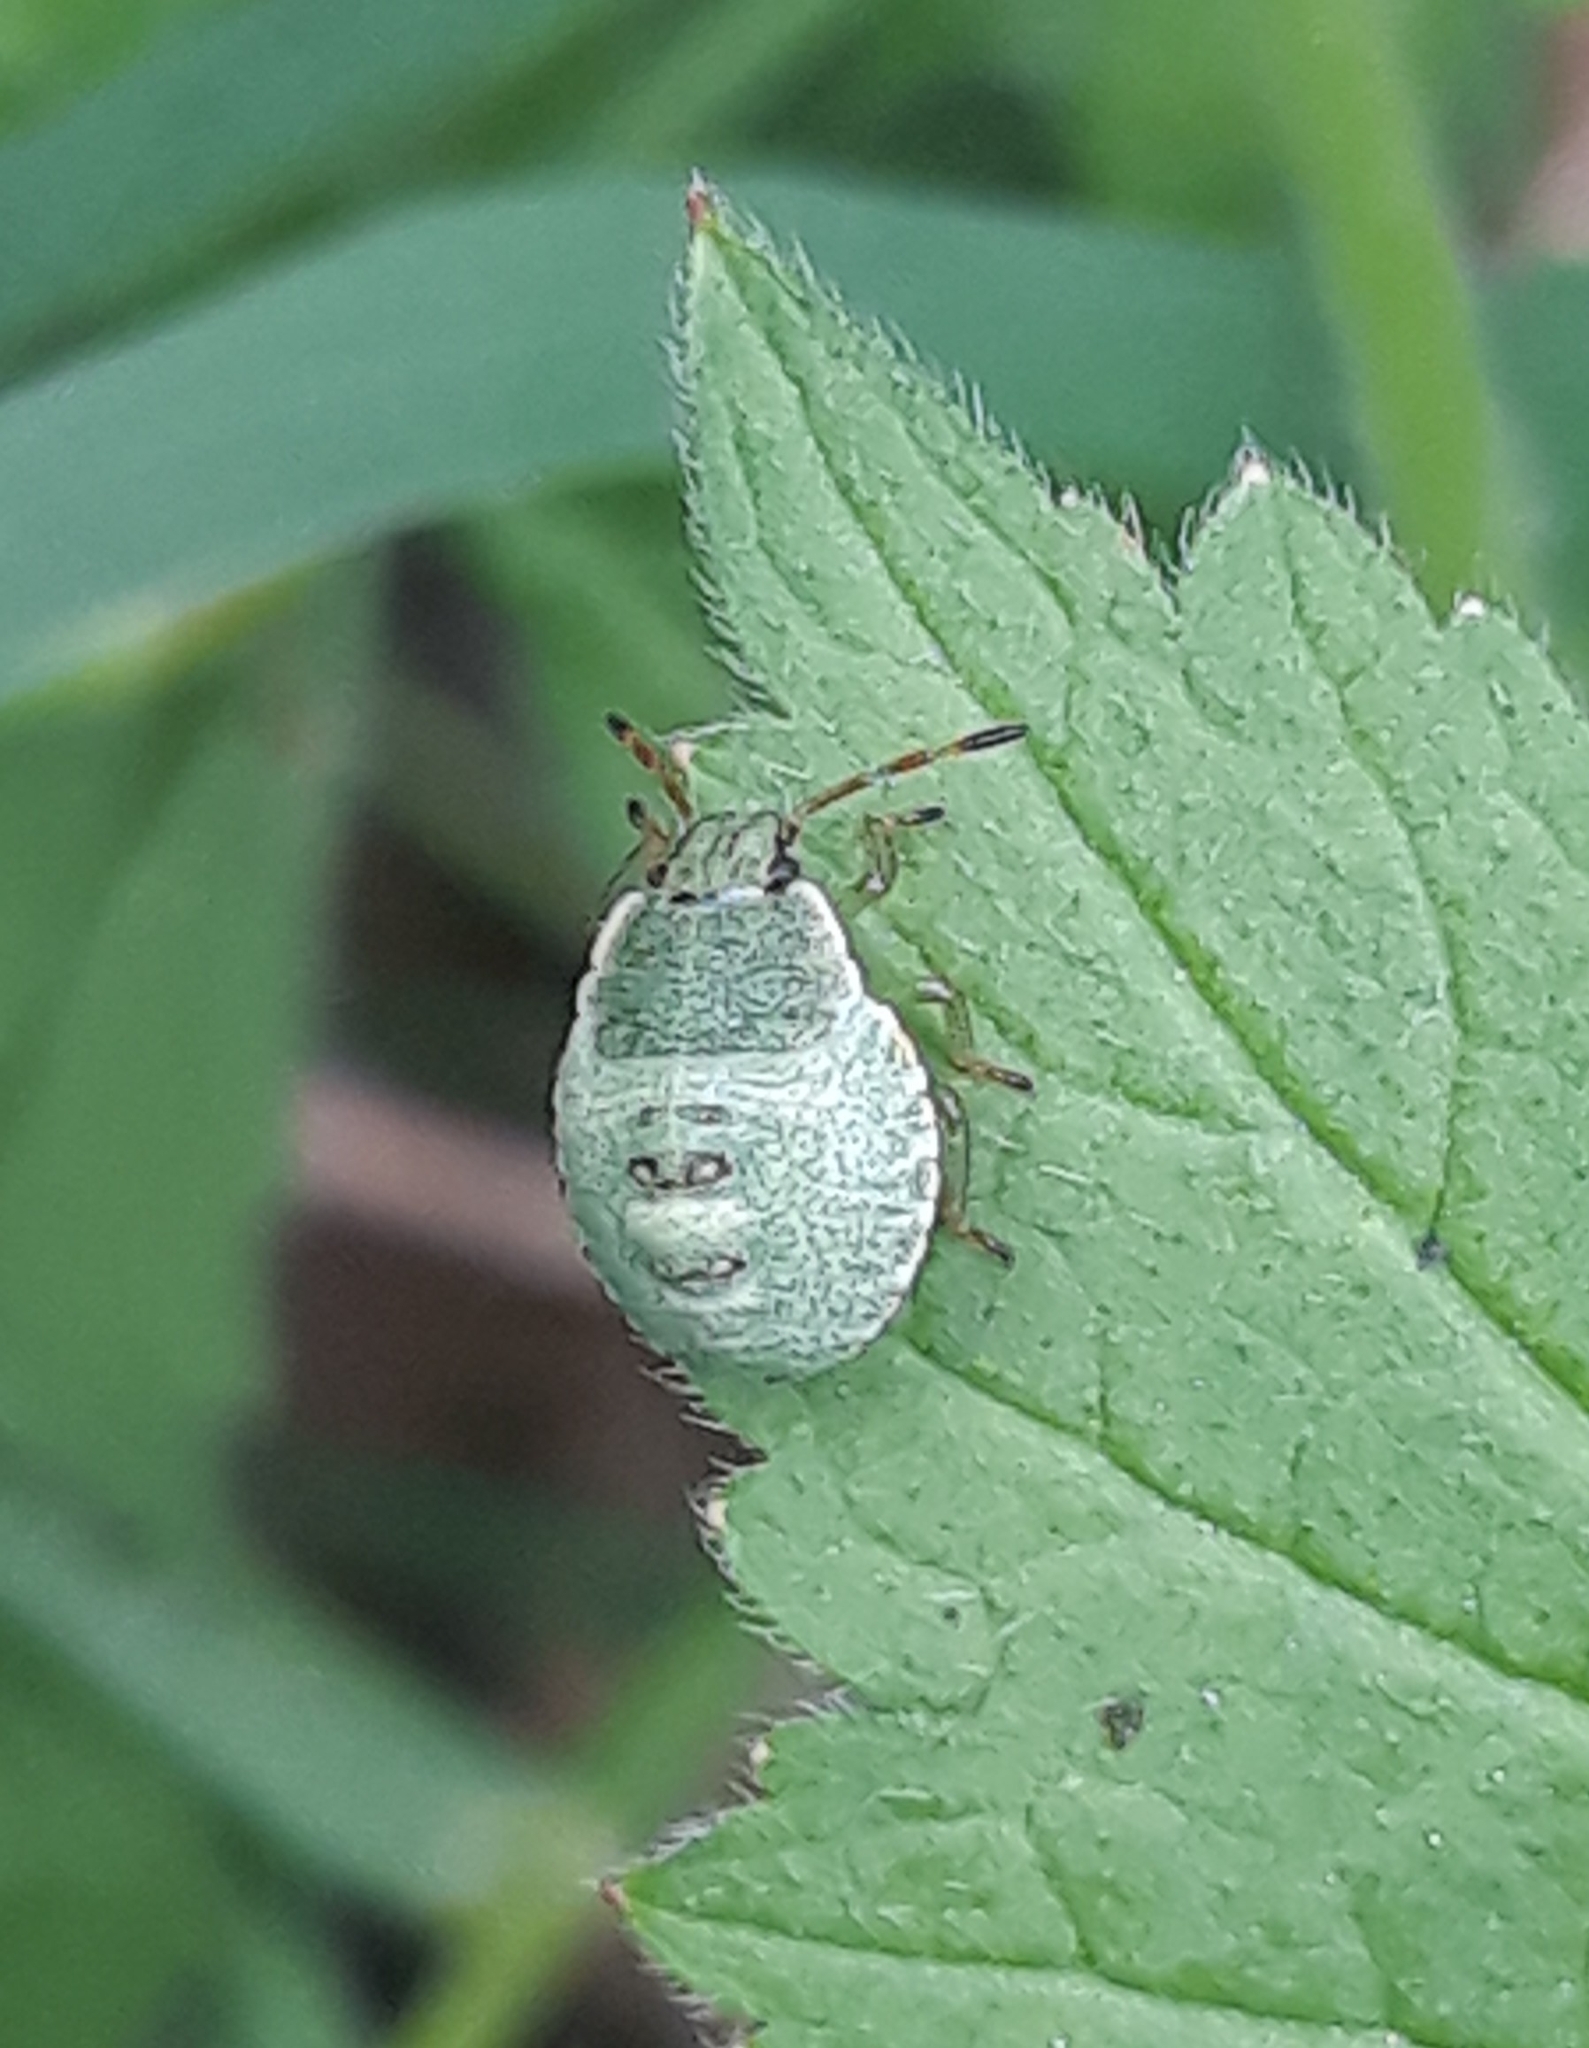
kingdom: Animalia
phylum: Arthropoda
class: Insecta
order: Hemiptera
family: Pentatomidae
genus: Palomena
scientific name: Palomena prasina
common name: Green shieldbug
